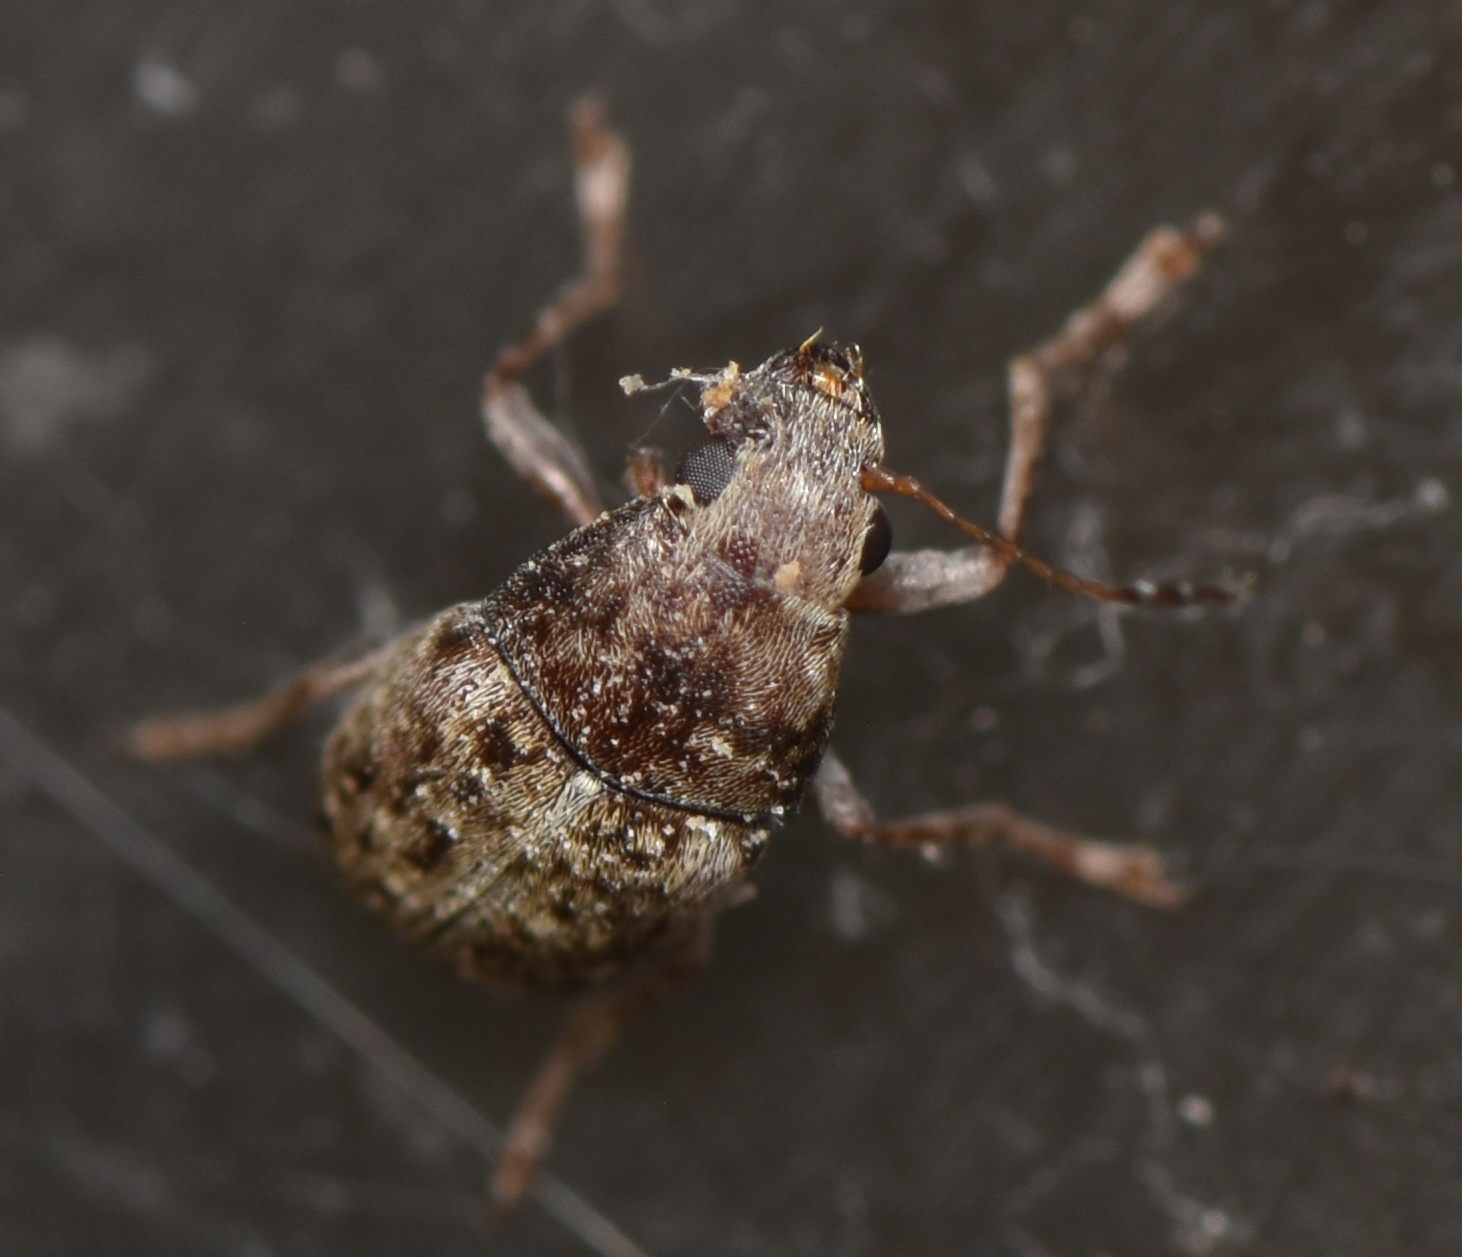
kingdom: Animalia
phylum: Arthropoda
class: Insecta
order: Coleoptera
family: Anthribidae
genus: Araecerus
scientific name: Araecerus fasciculatus
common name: Coffee bean weevil
